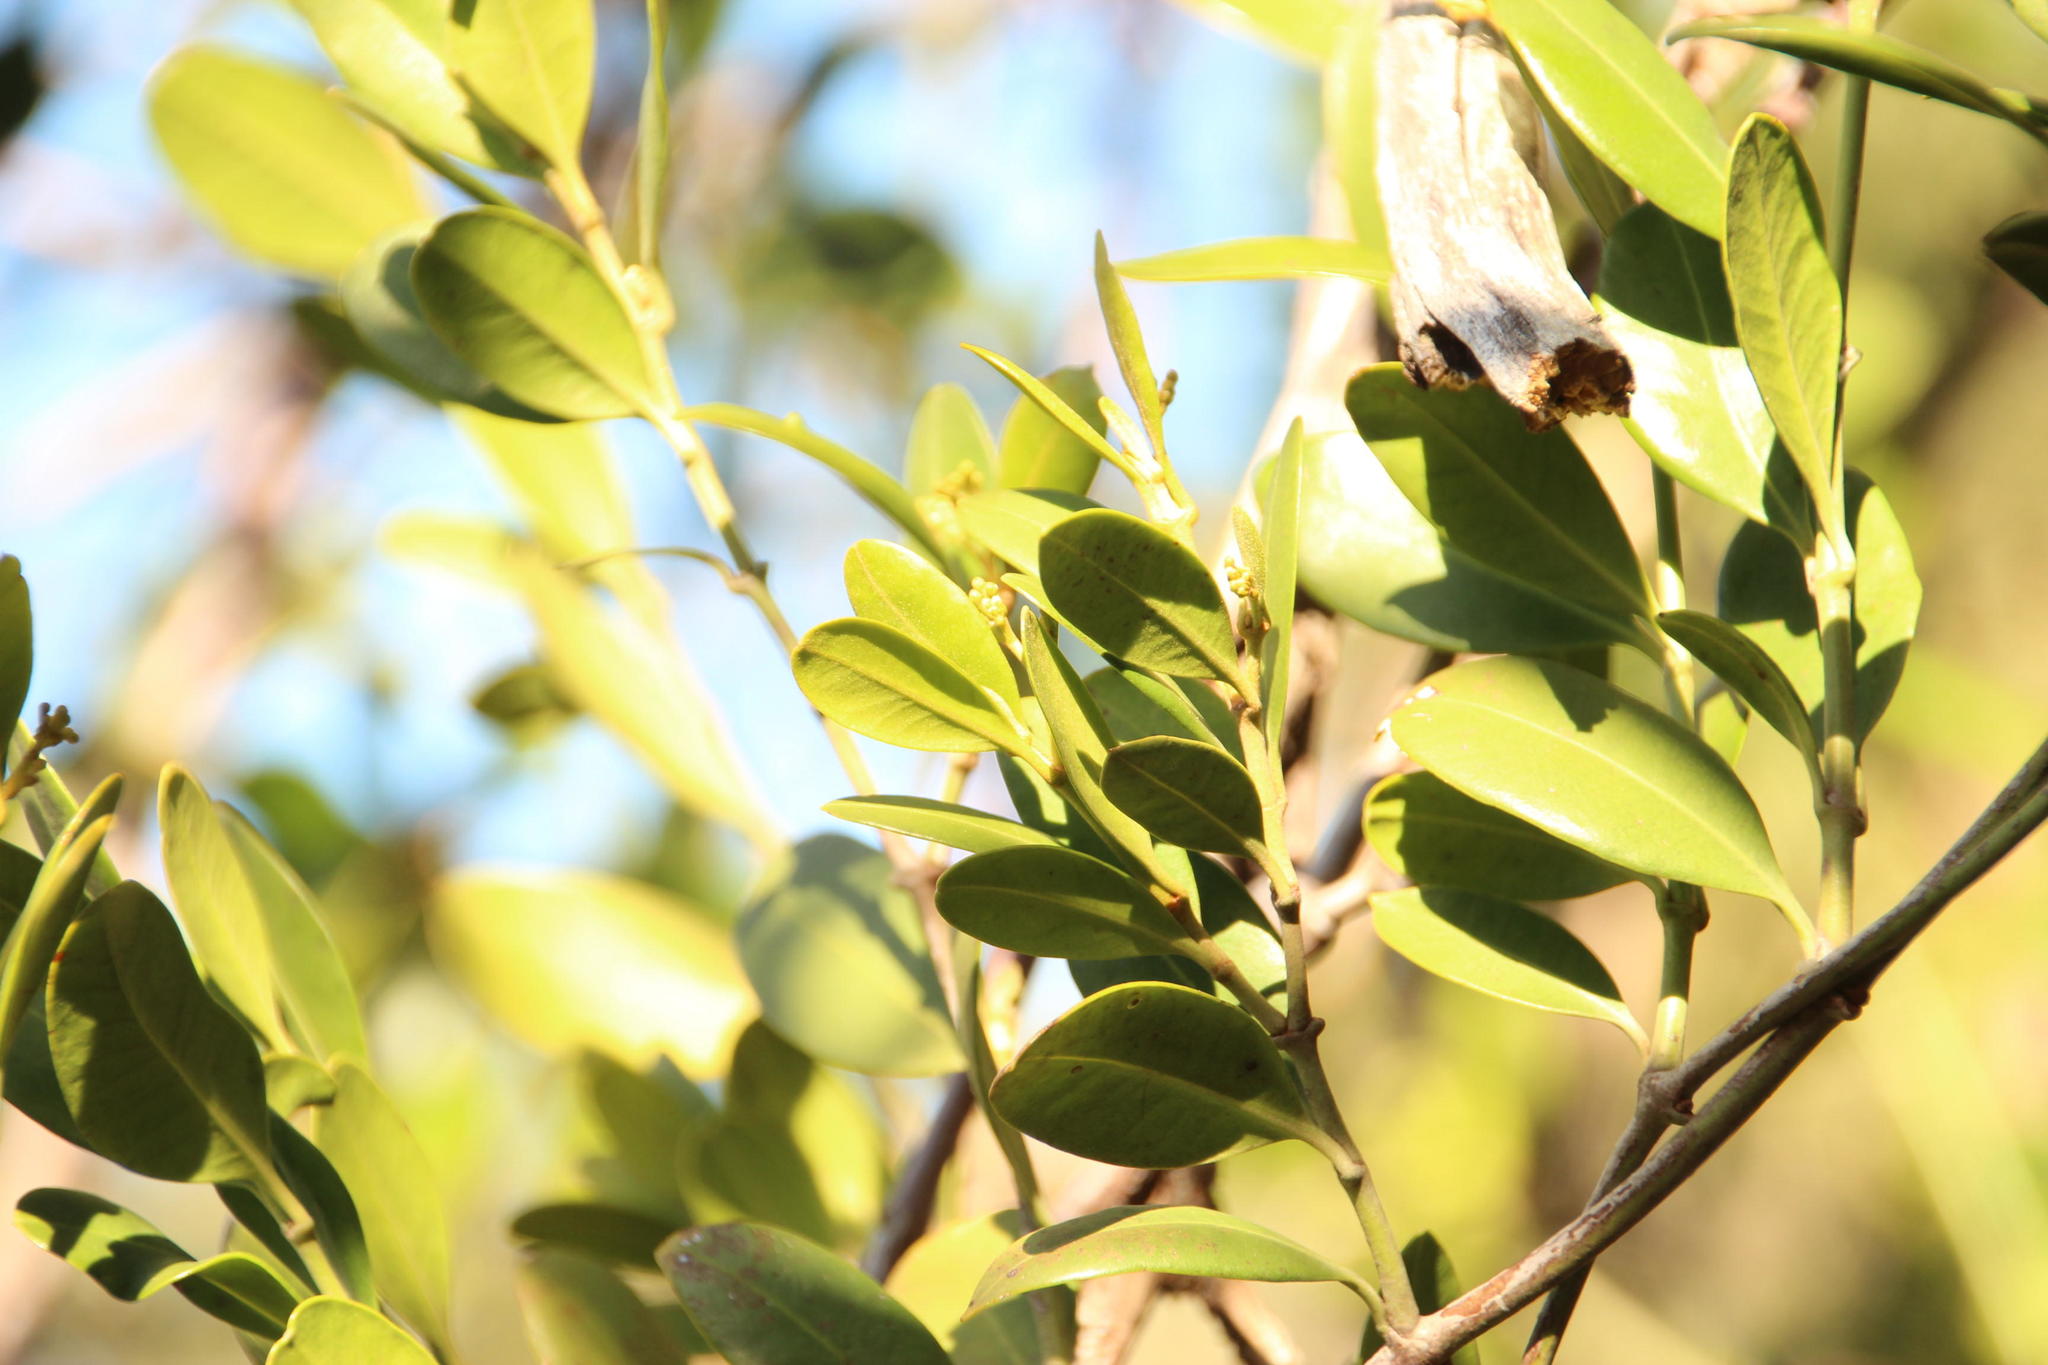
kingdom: Plantae
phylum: Tracheophyta
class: Magnoliopsida
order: Gentianales
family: Apocynaceae
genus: Secamone
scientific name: Secamone alpini
